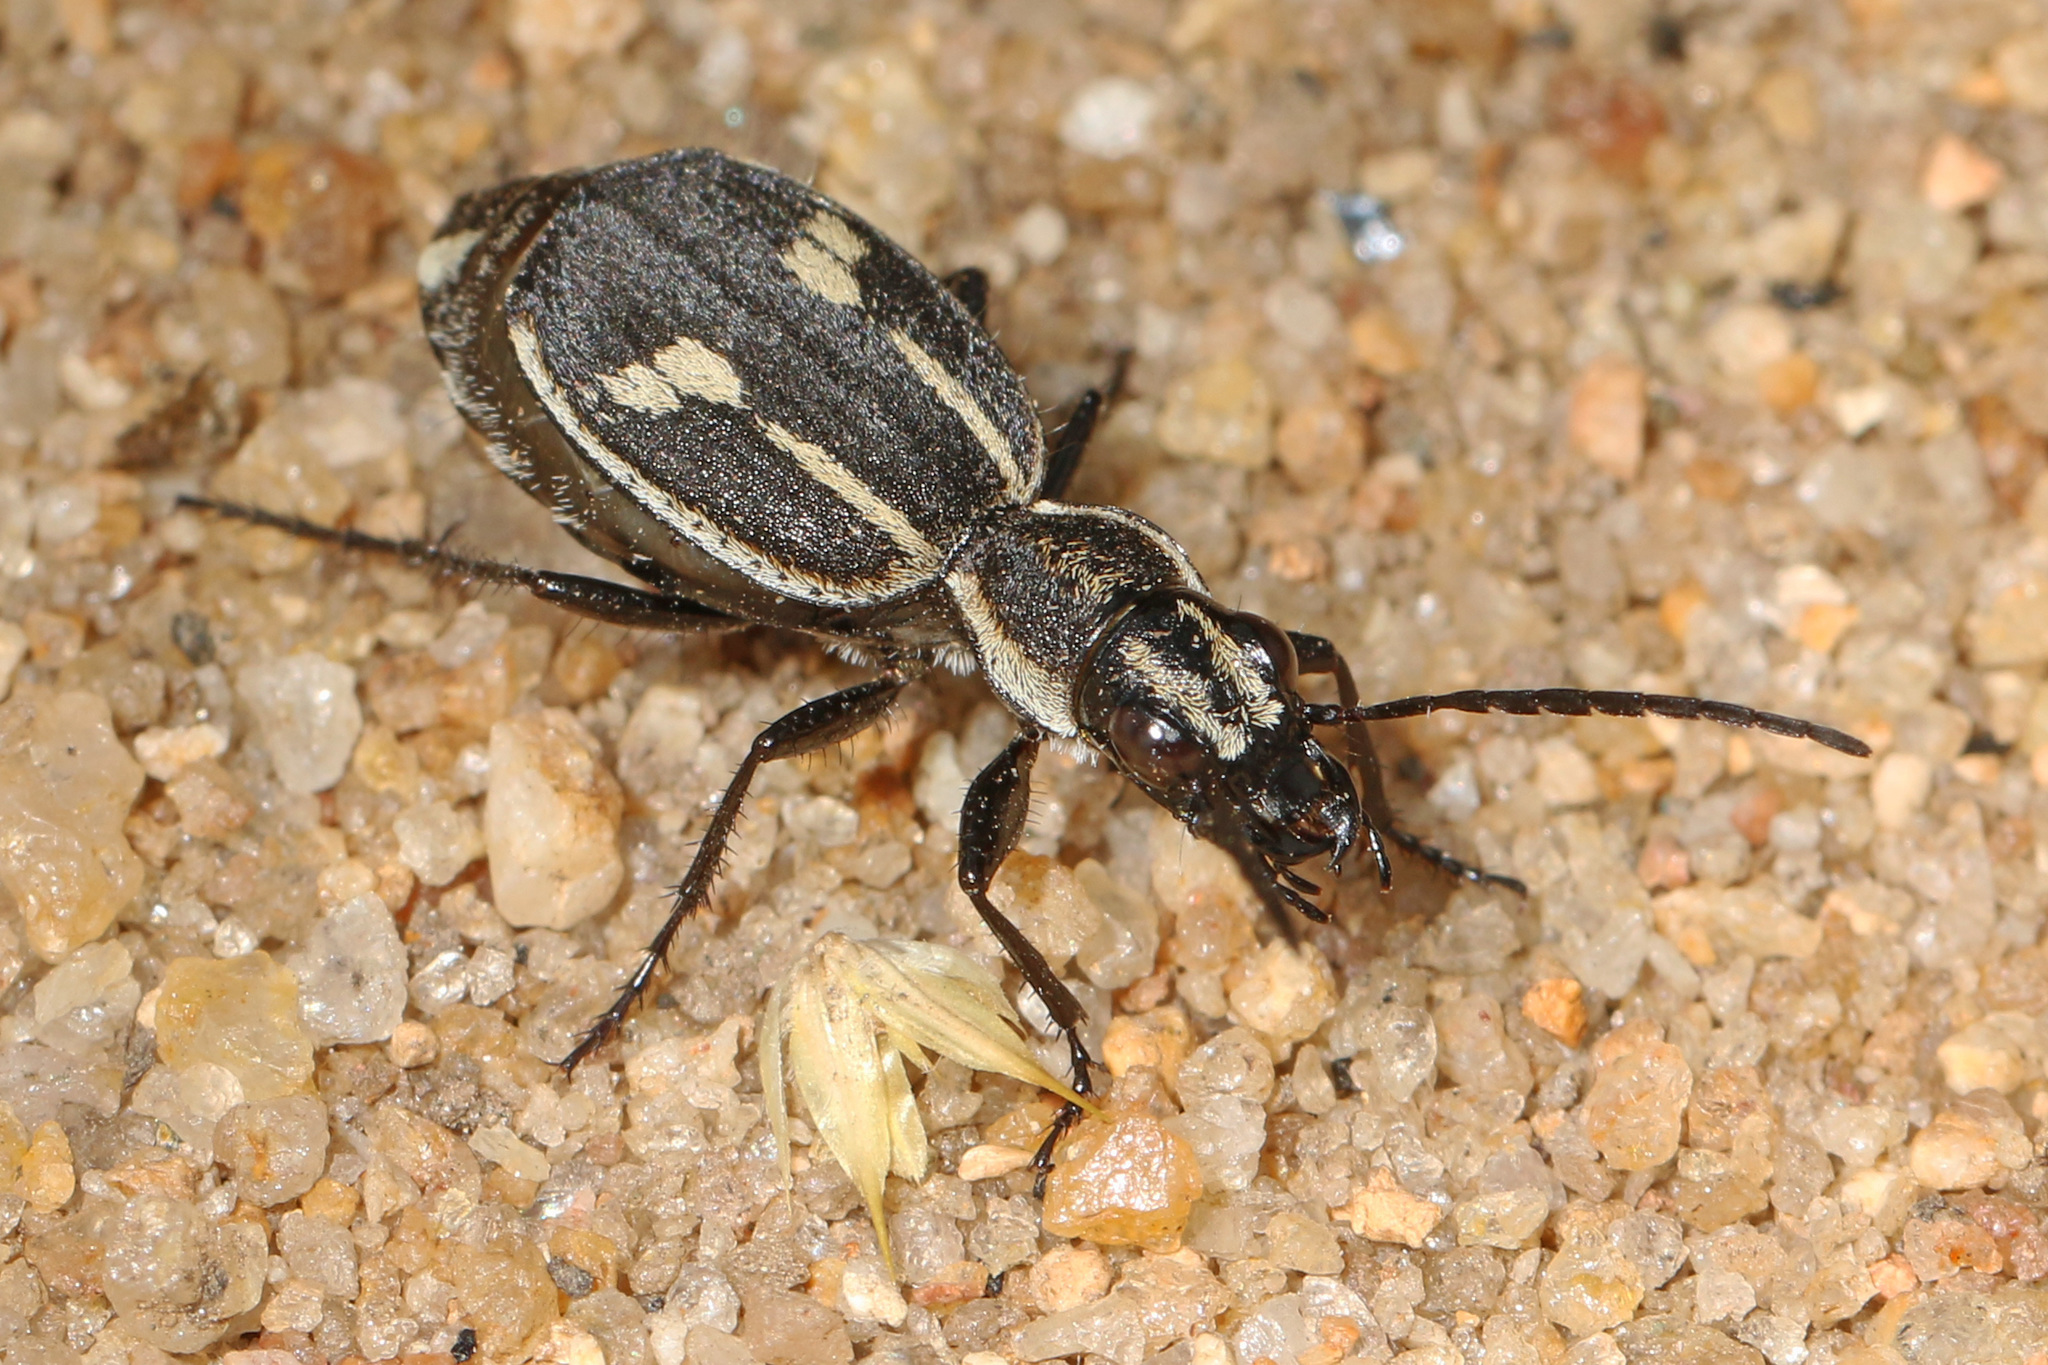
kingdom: Animalia
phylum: Arthropoda
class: Insecta
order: Coleoptera
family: Carabidae
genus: Graphipterus
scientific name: Graphipterus tristis
